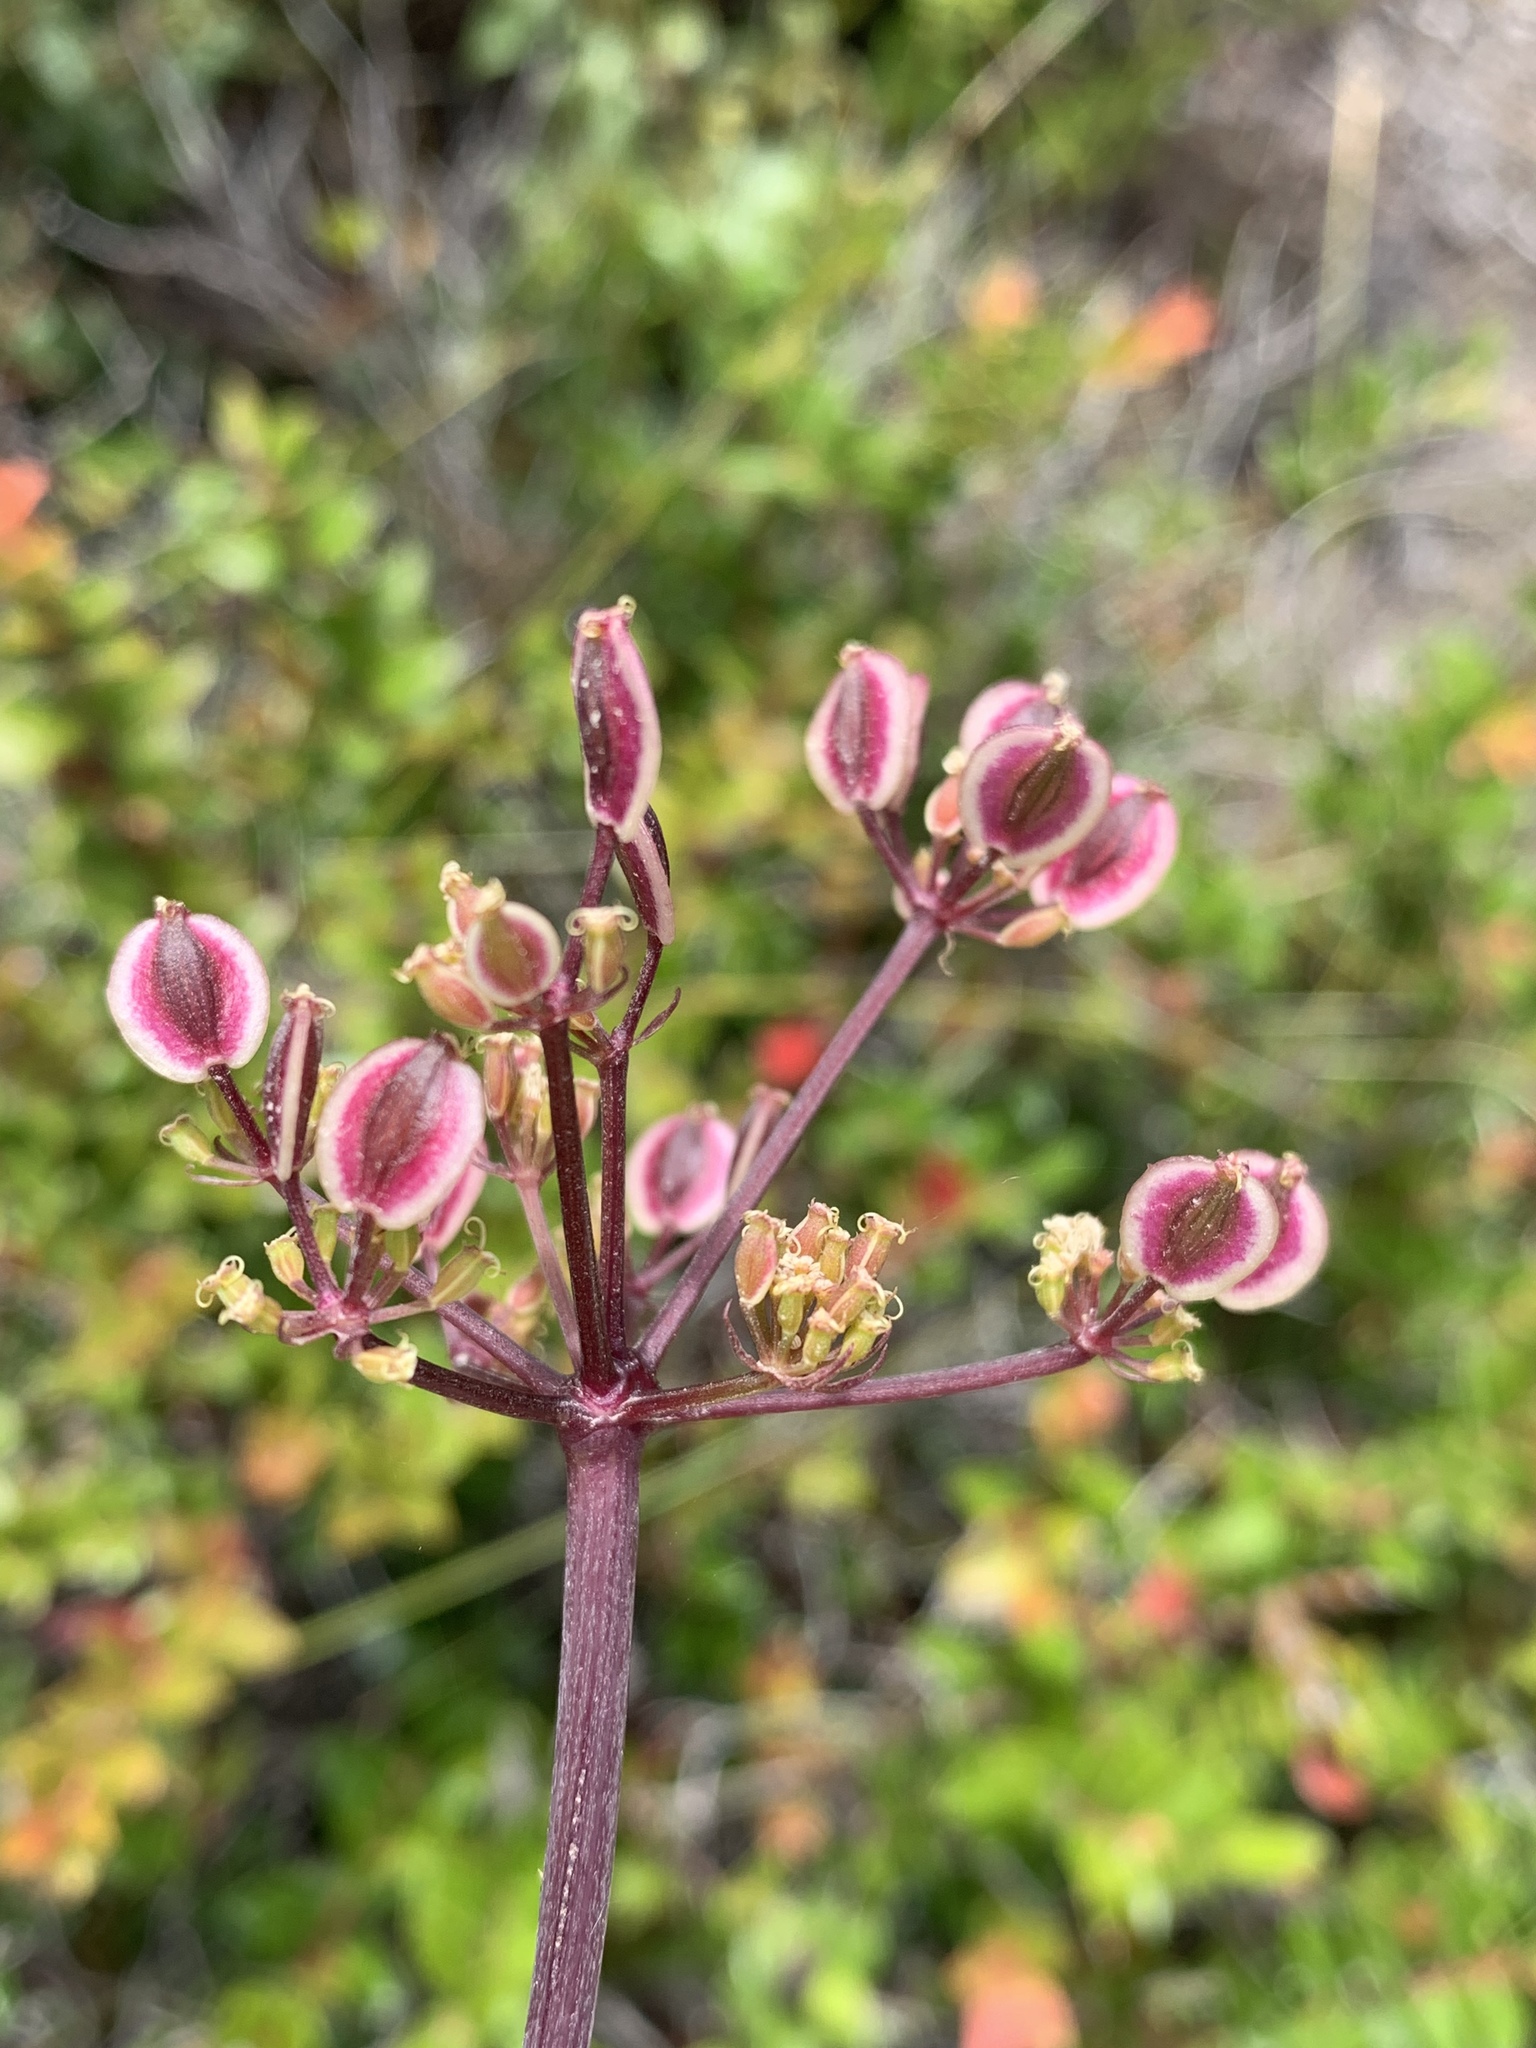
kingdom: Plantae
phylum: Tracheophyta
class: Magnoliopsida
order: Apiales
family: Apiaceae
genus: Lomatium
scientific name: Lomatium parvifolium
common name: Small-leaf lomatium
